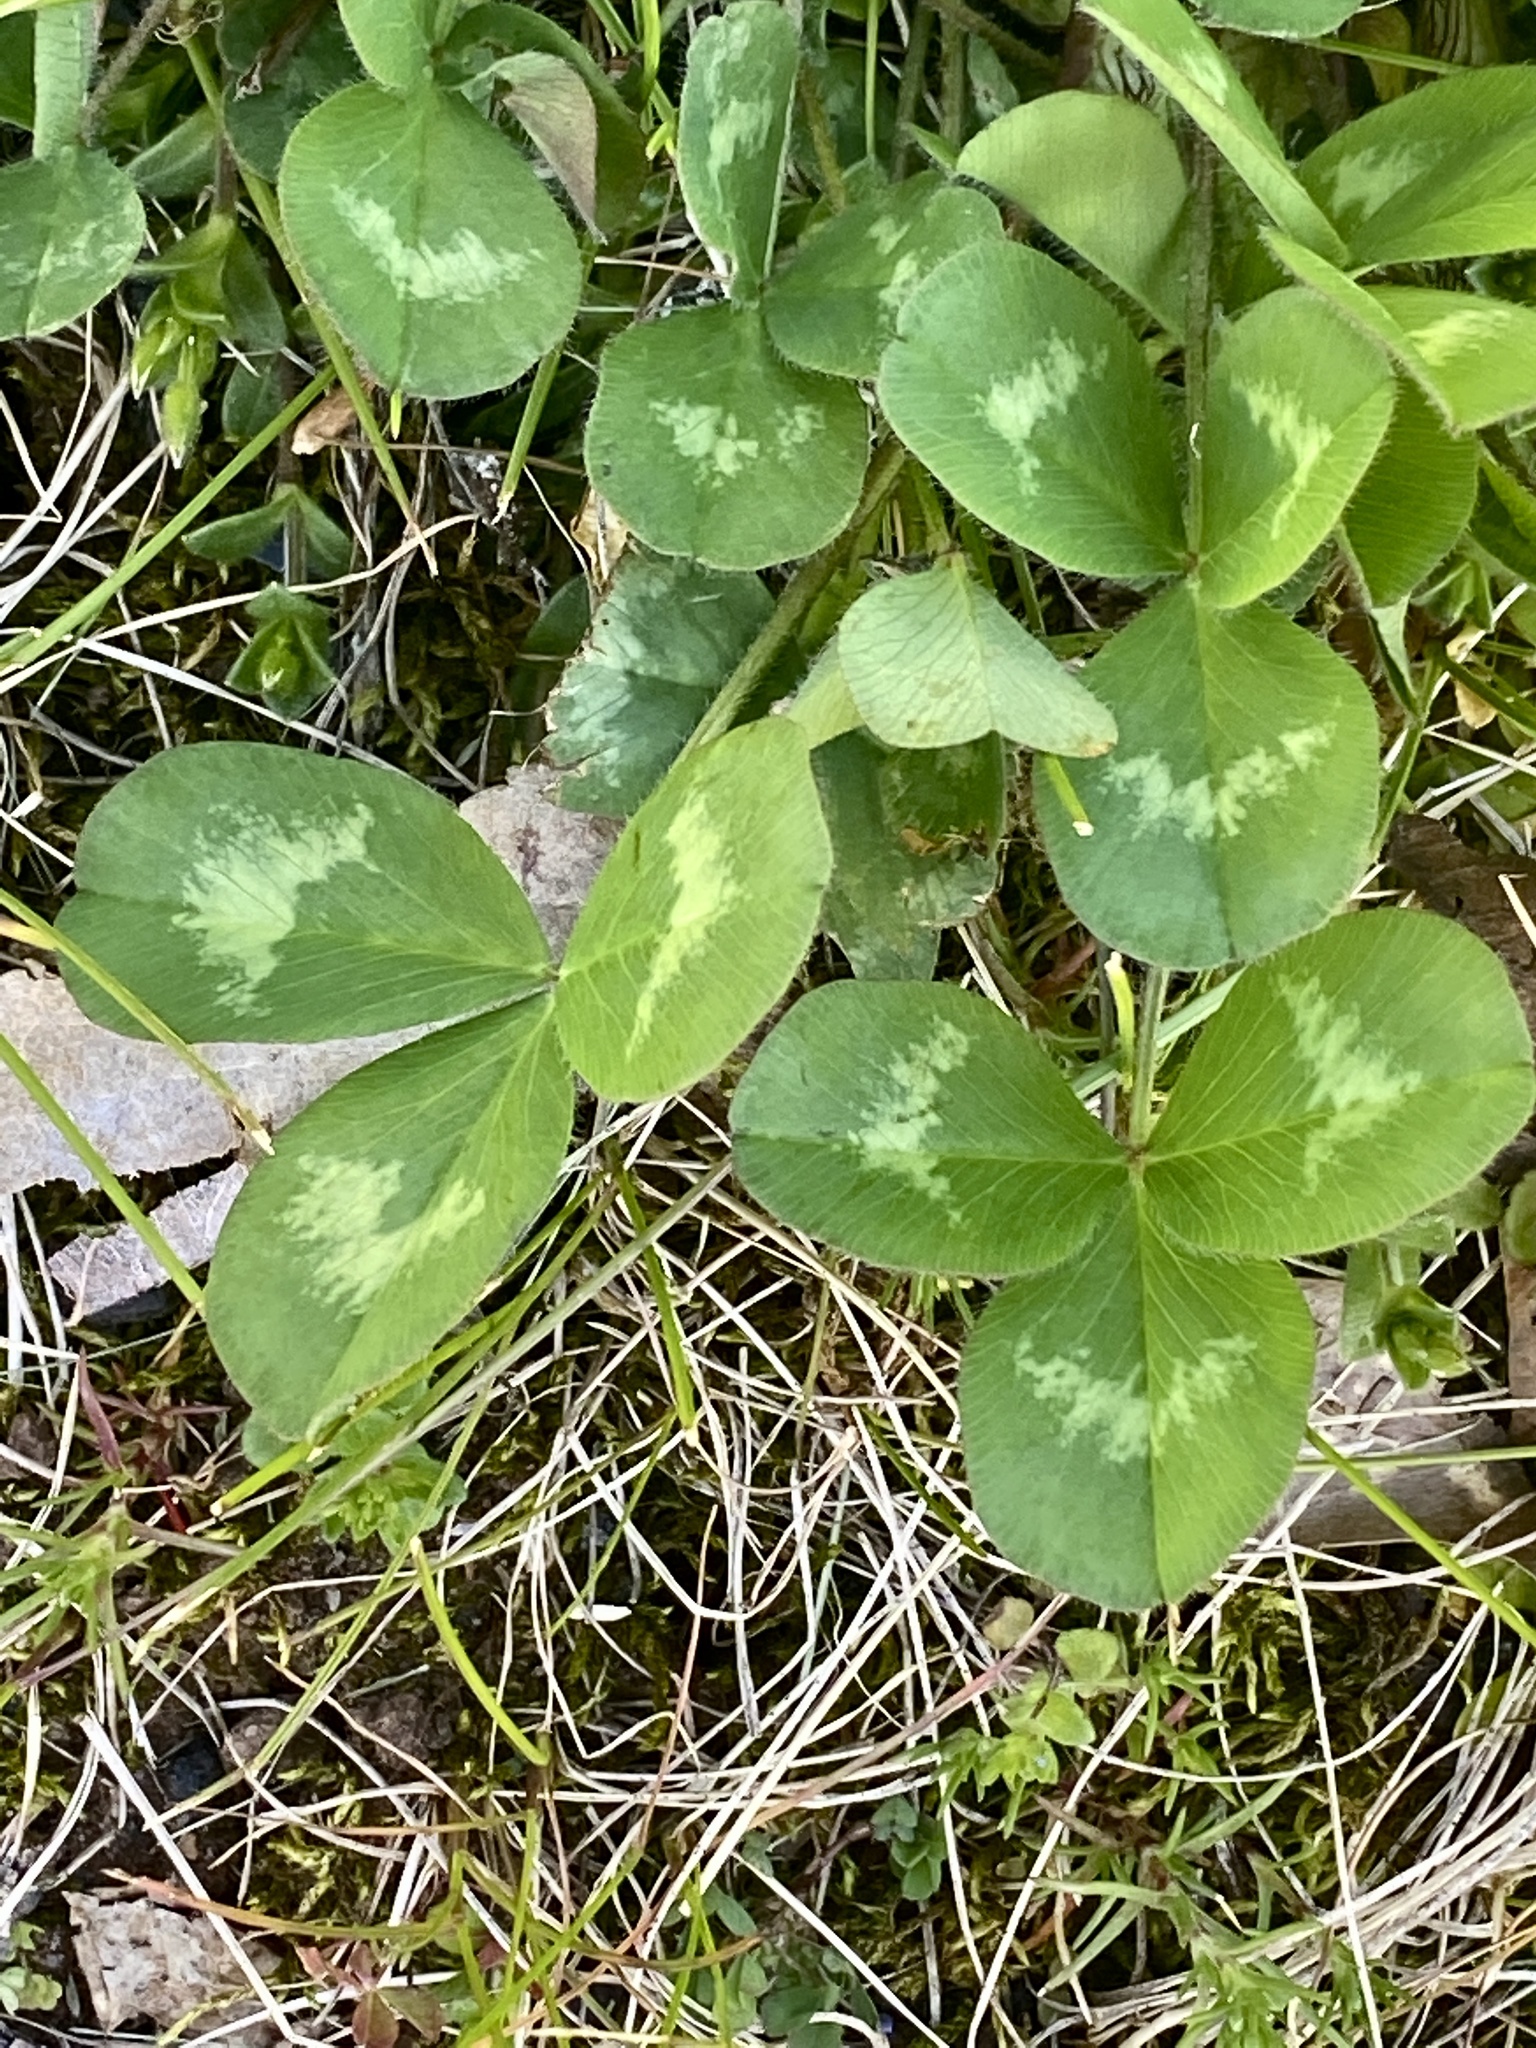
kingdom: Plantae
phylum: Tracheophyta
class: Magnoliopsida
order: Fabales
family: Fabaceae
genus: Trifolium
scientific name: Trifolium pratense
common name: Red clover
